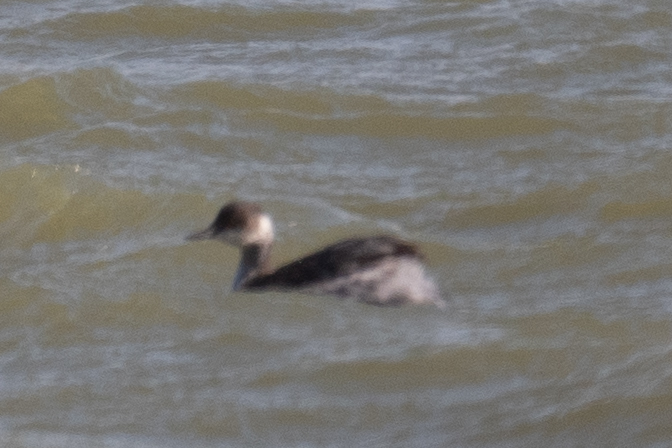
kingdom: Animalia
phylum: Chordata
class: Aves
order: Podicipediformes
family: Podicipedidae
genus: Podiceps
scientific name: Podiceps nigricollis
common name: Black-necked grebe
